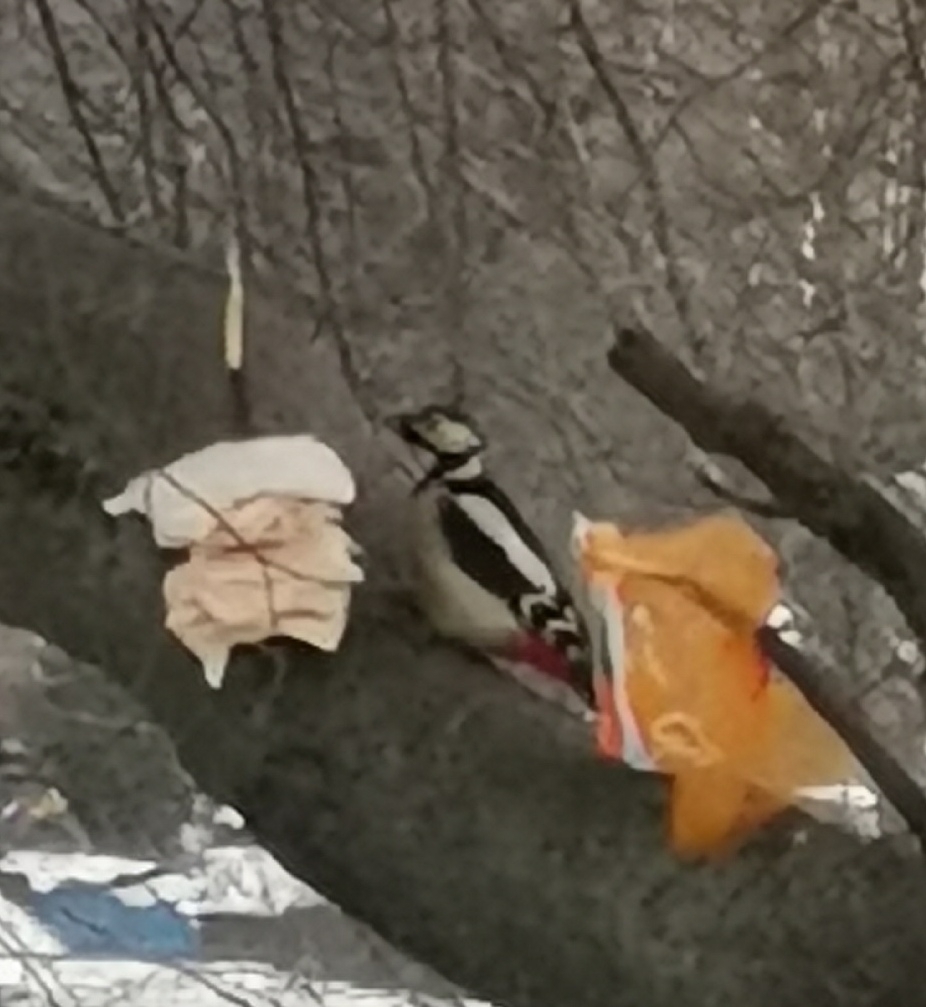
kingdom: Animalia
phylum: Chordata
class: Aves
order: Piciformes
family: Picidae
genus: Dendrocopos
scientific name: Dendrocopos major
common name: Great spotted woodpecker
